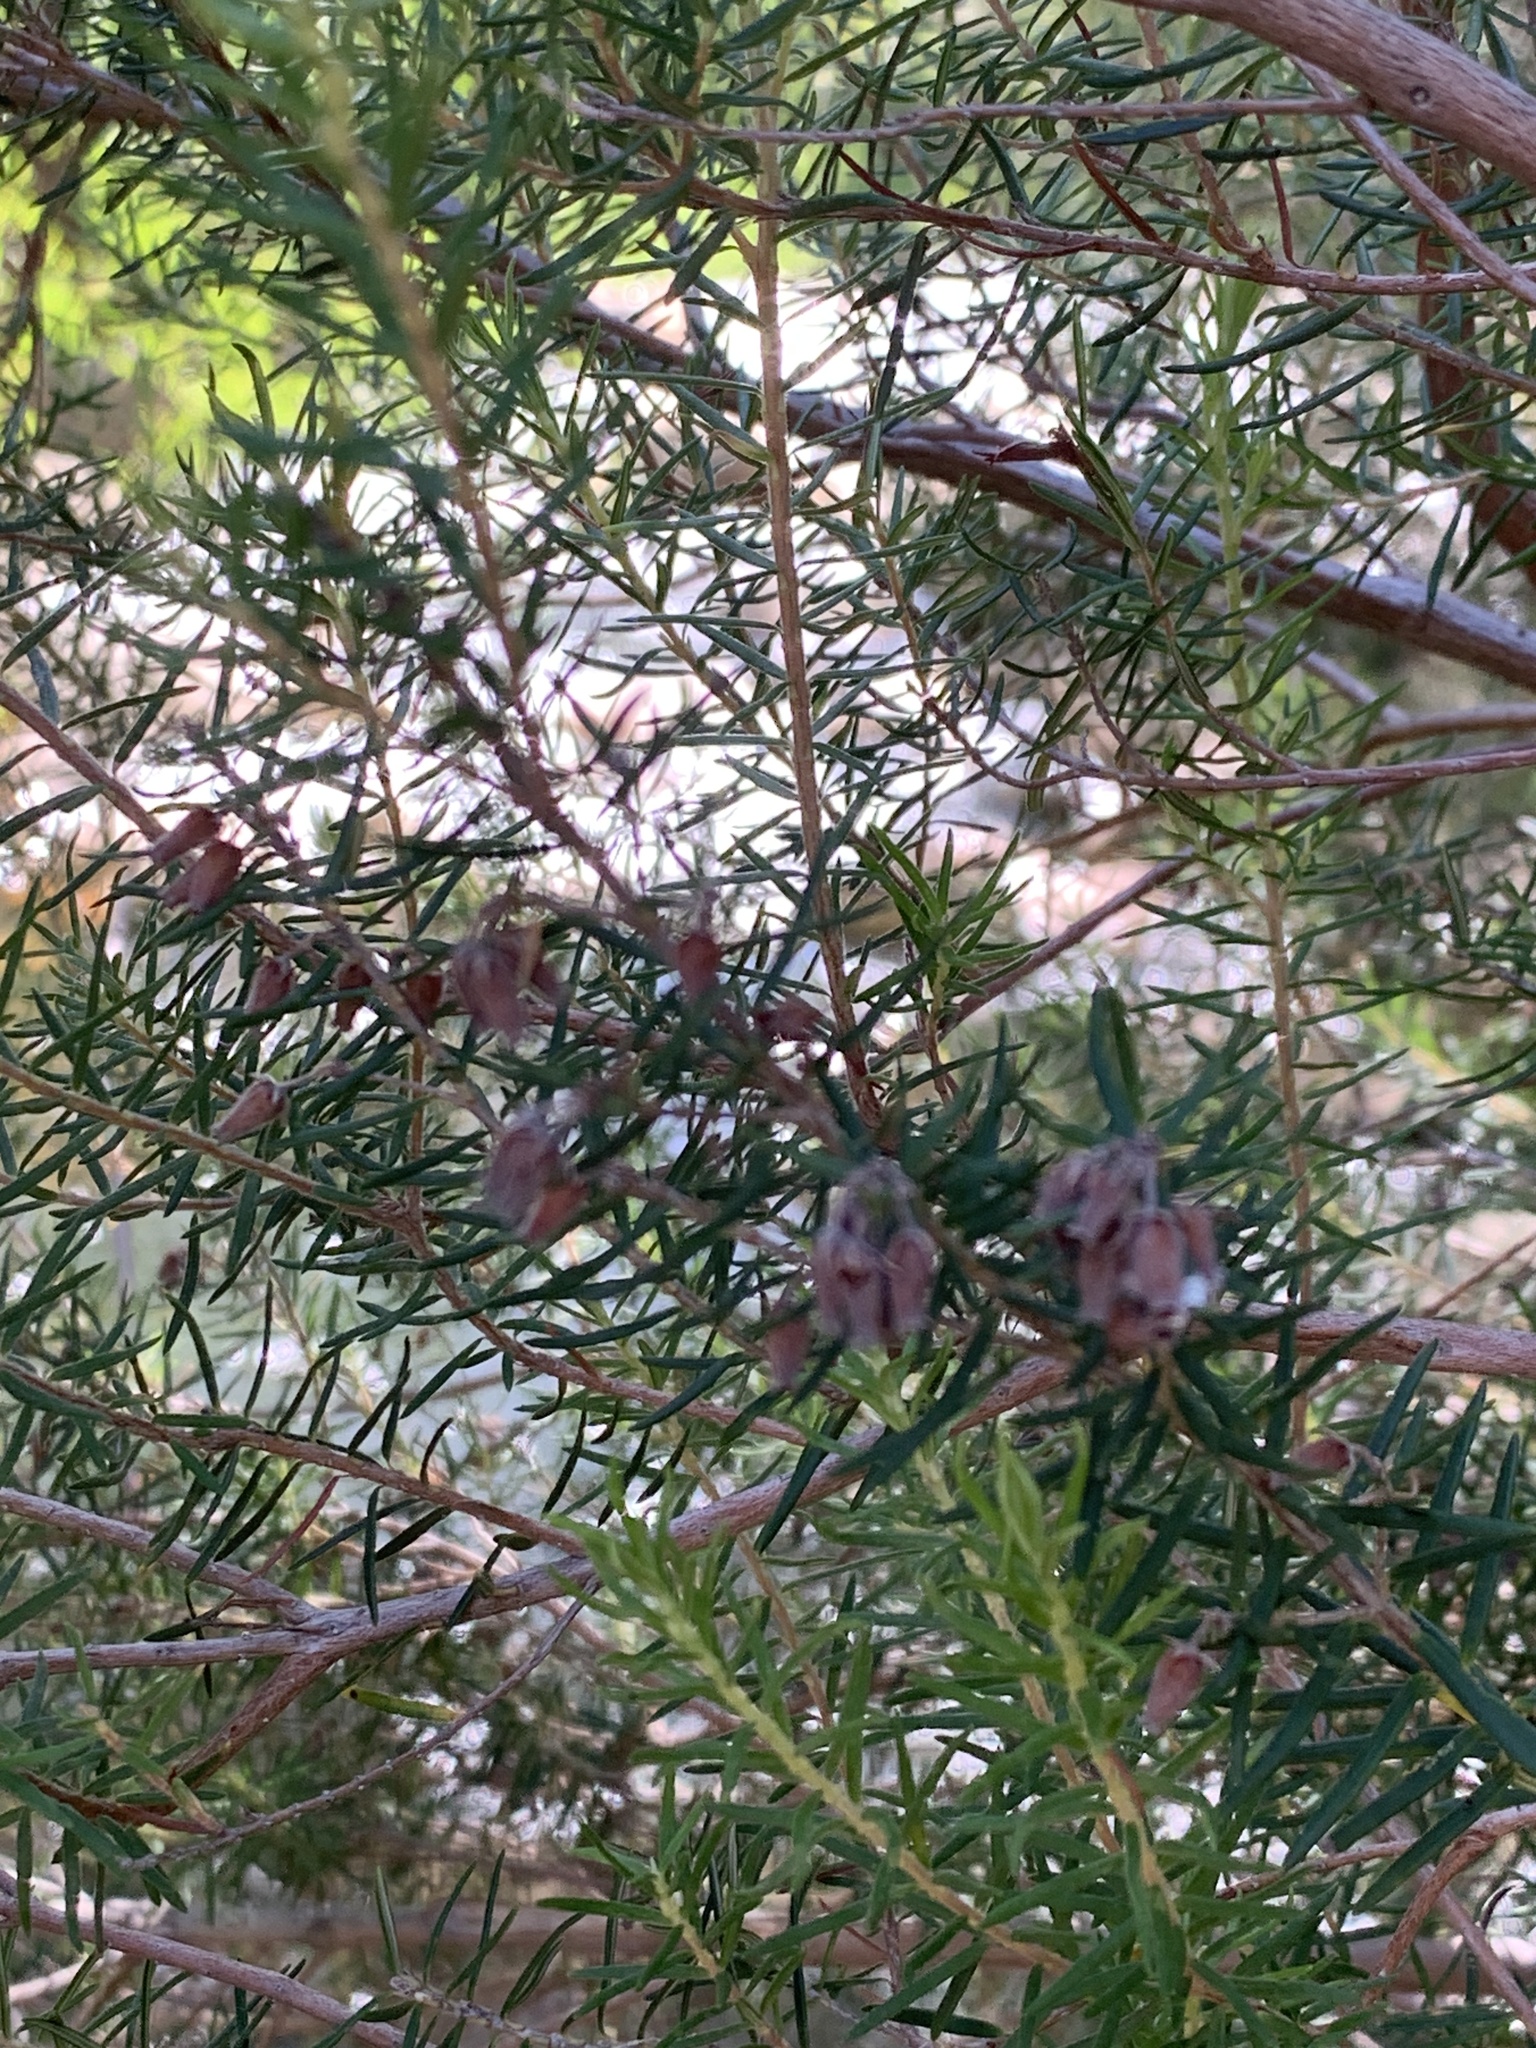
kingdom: Plantae
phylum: Tracheophyta
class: Magnoliopsida
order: Ericales
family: Ericaceae
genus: Erica
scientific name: Erica caffra
